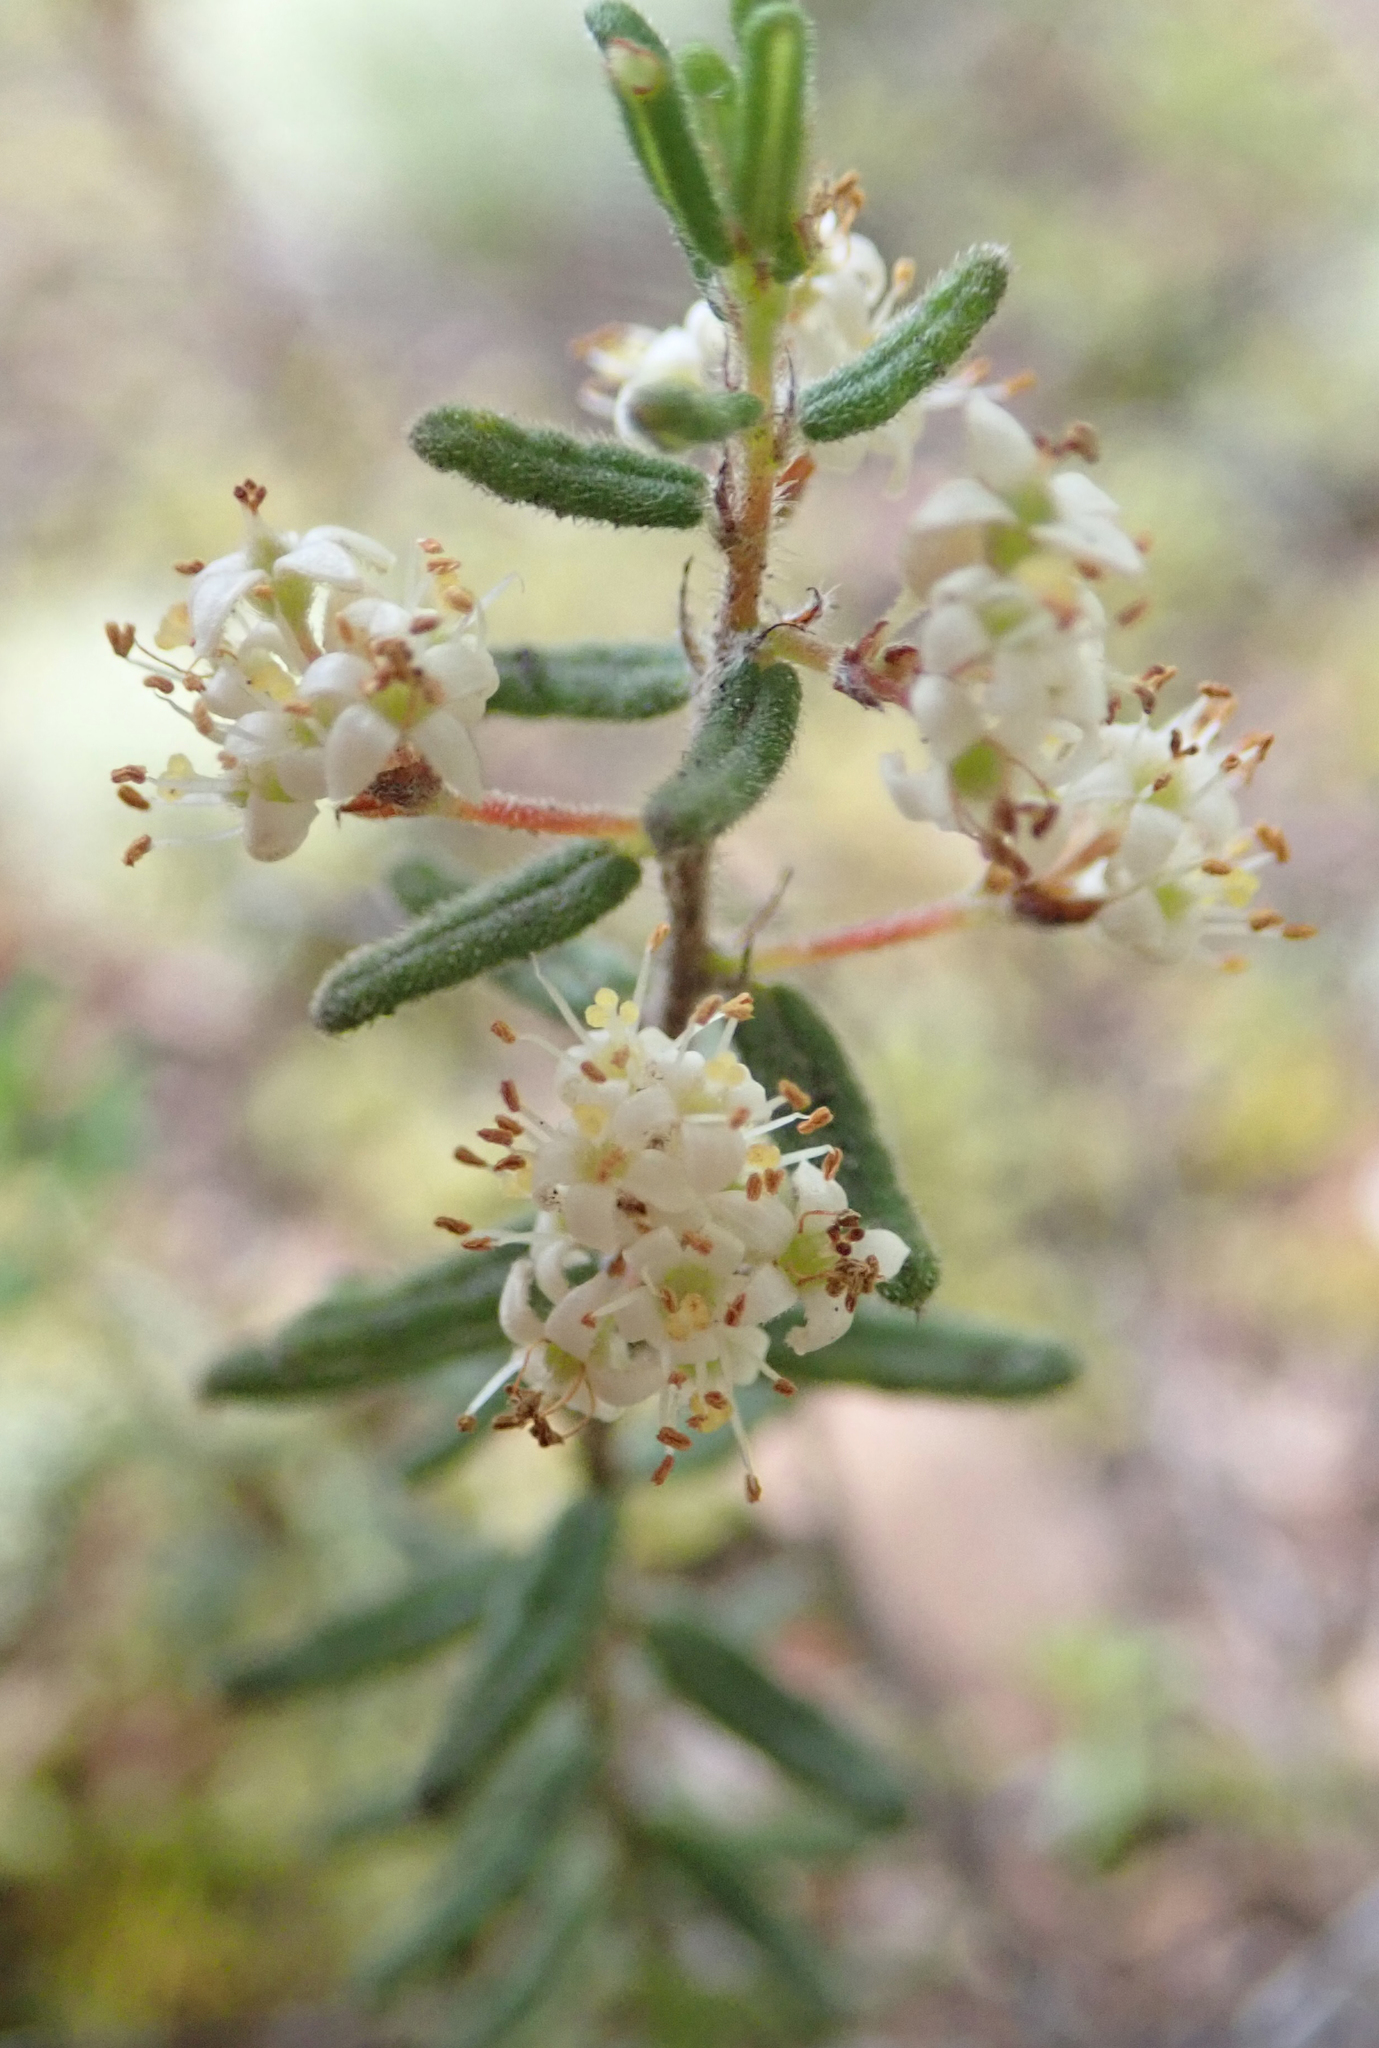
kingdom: Plantae
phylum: Tracheophyta
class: Magnoliopsida
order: Rosales
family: Rhamnaceae
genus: Pomaderris
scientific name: Pomaderris amoena
